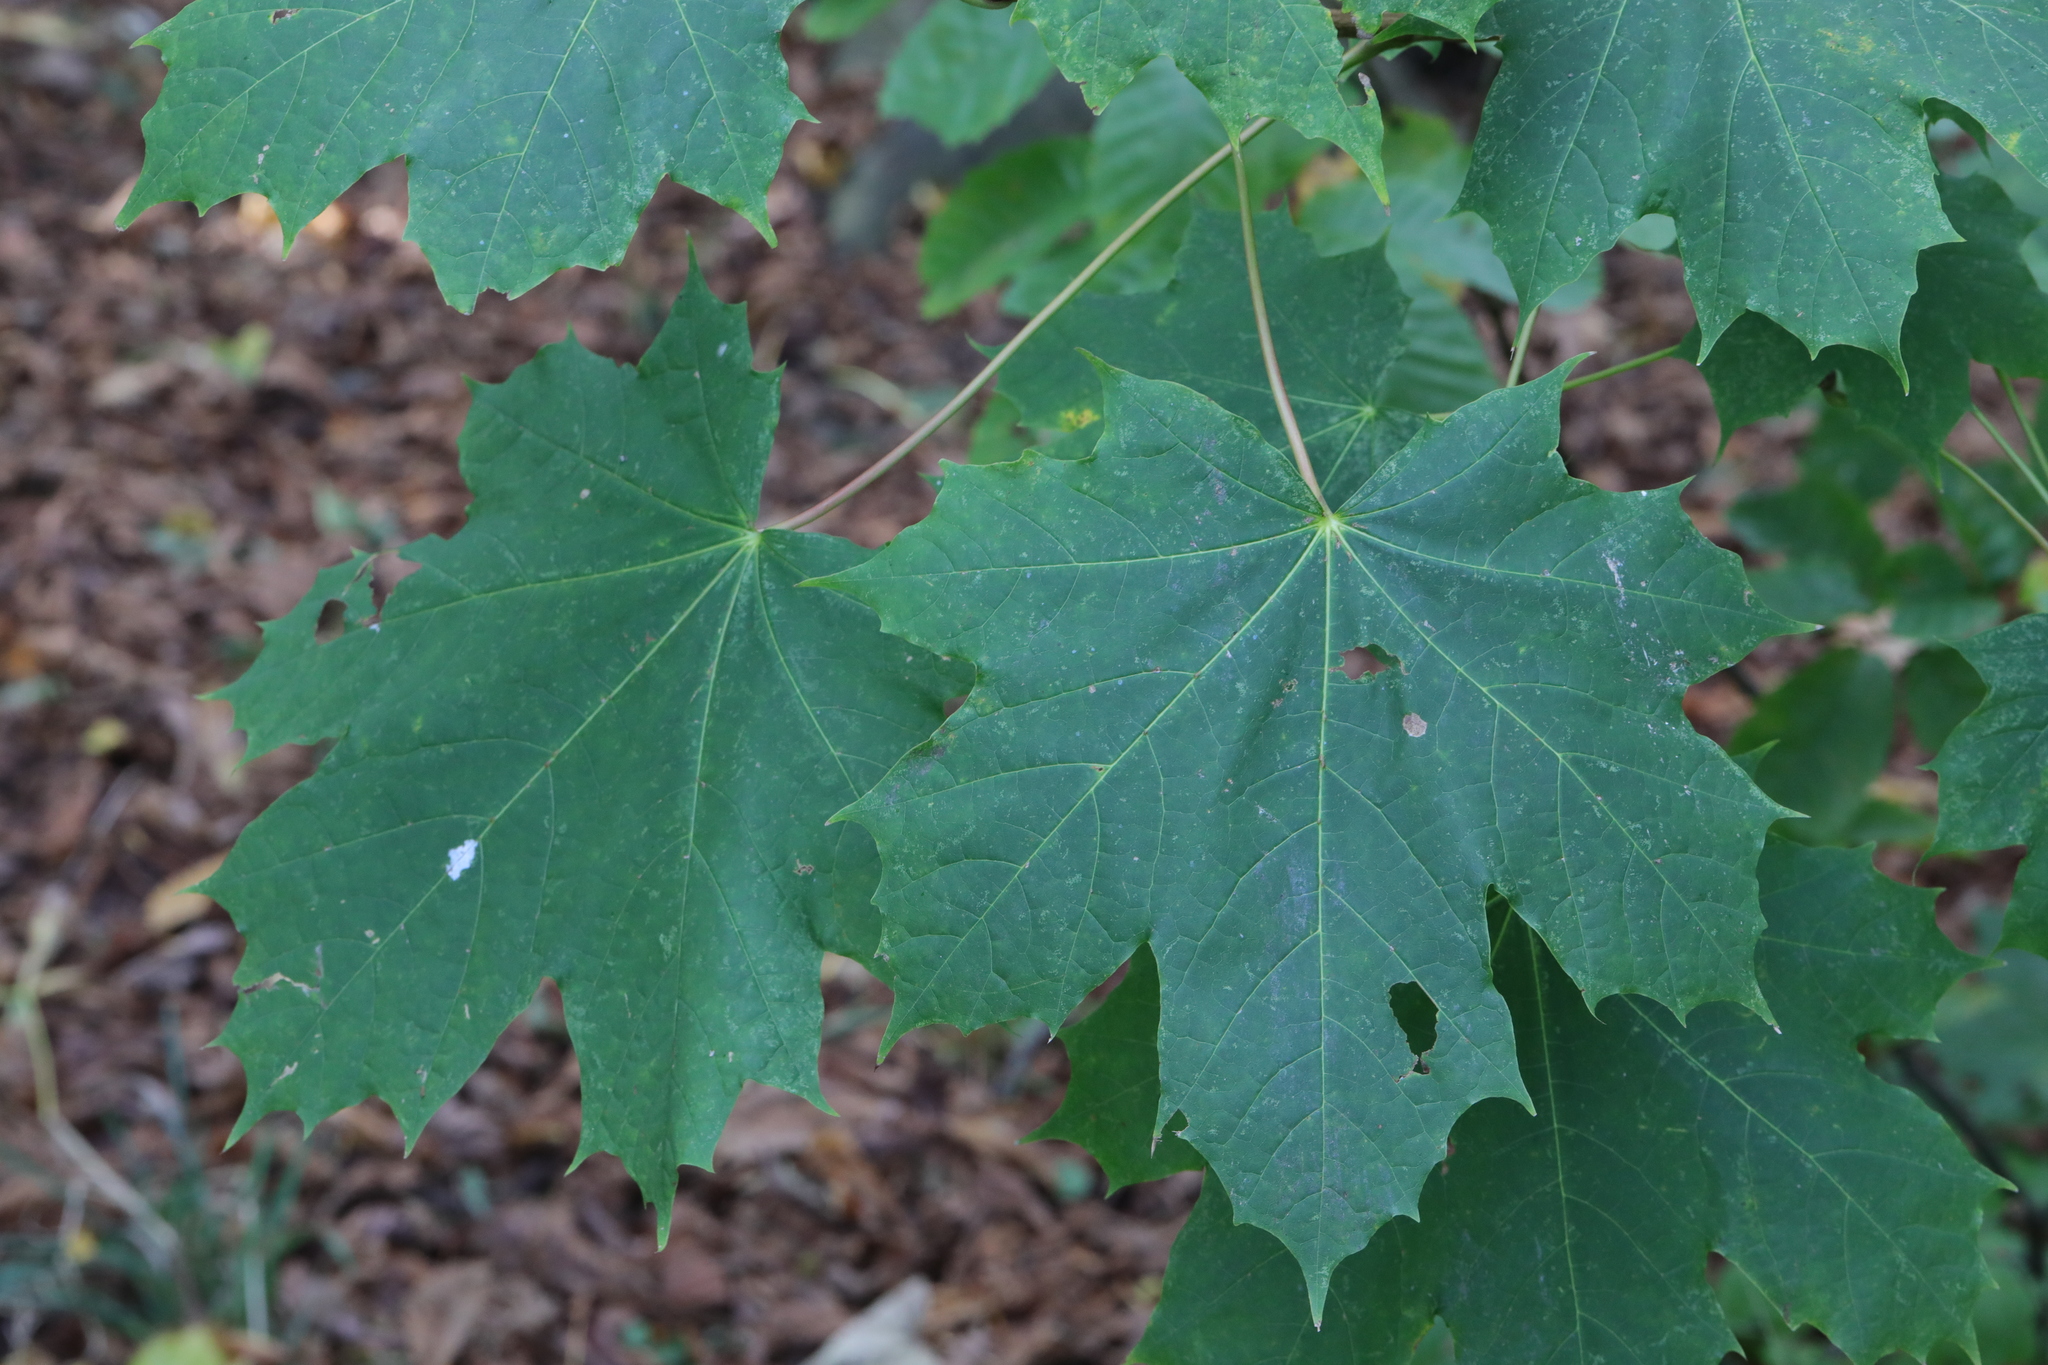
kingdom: Plantae
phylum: Tracheophyta
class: Magnoliopsida
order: Sapindales
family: Sapindaceae
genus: Acer
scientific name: Acer platanoides
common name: Norway maple
